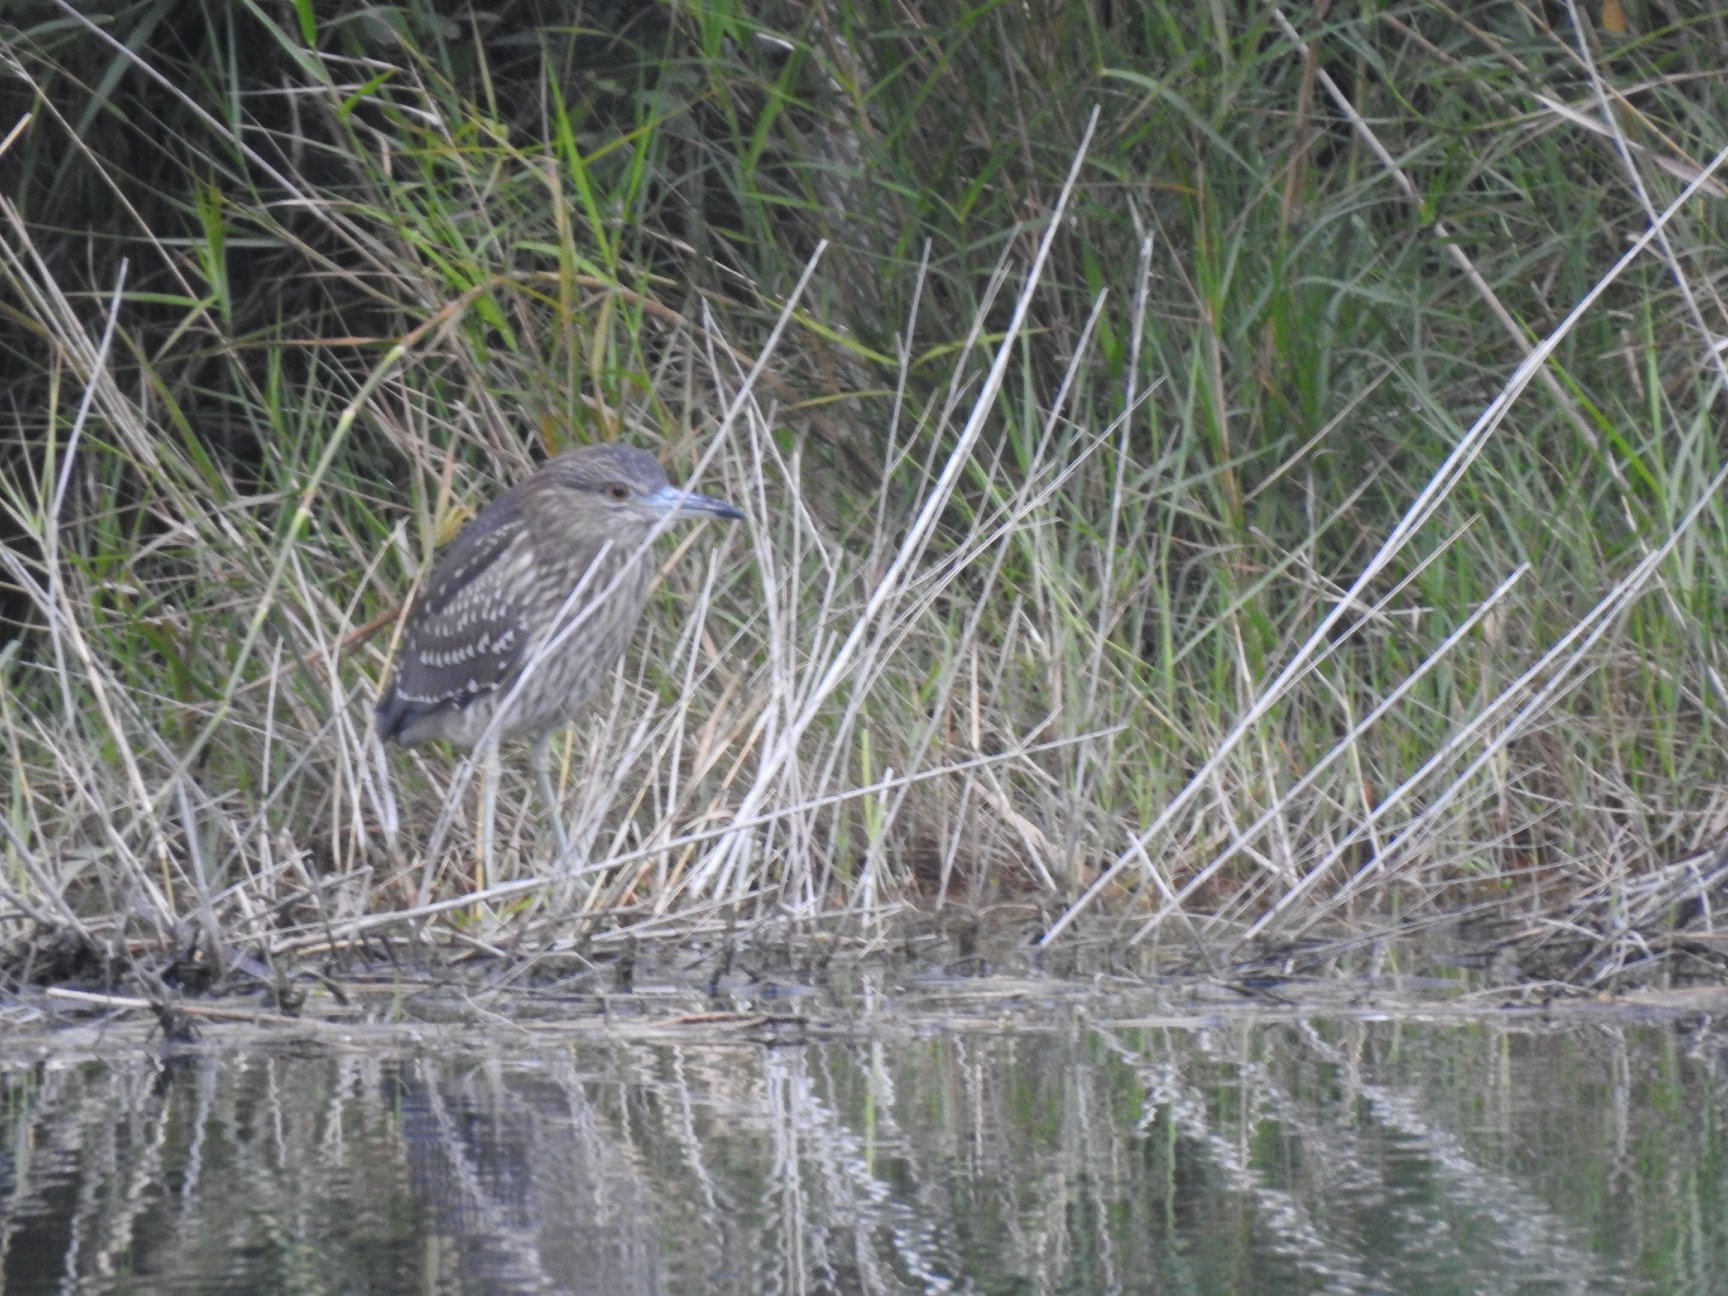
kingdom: Animalia
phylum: Chordata
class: Aves
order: Pelecaniformes
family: Ardeidae
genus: Nycticorax
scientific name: Nycticorax nycticorax
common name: Black-crowned night heron
